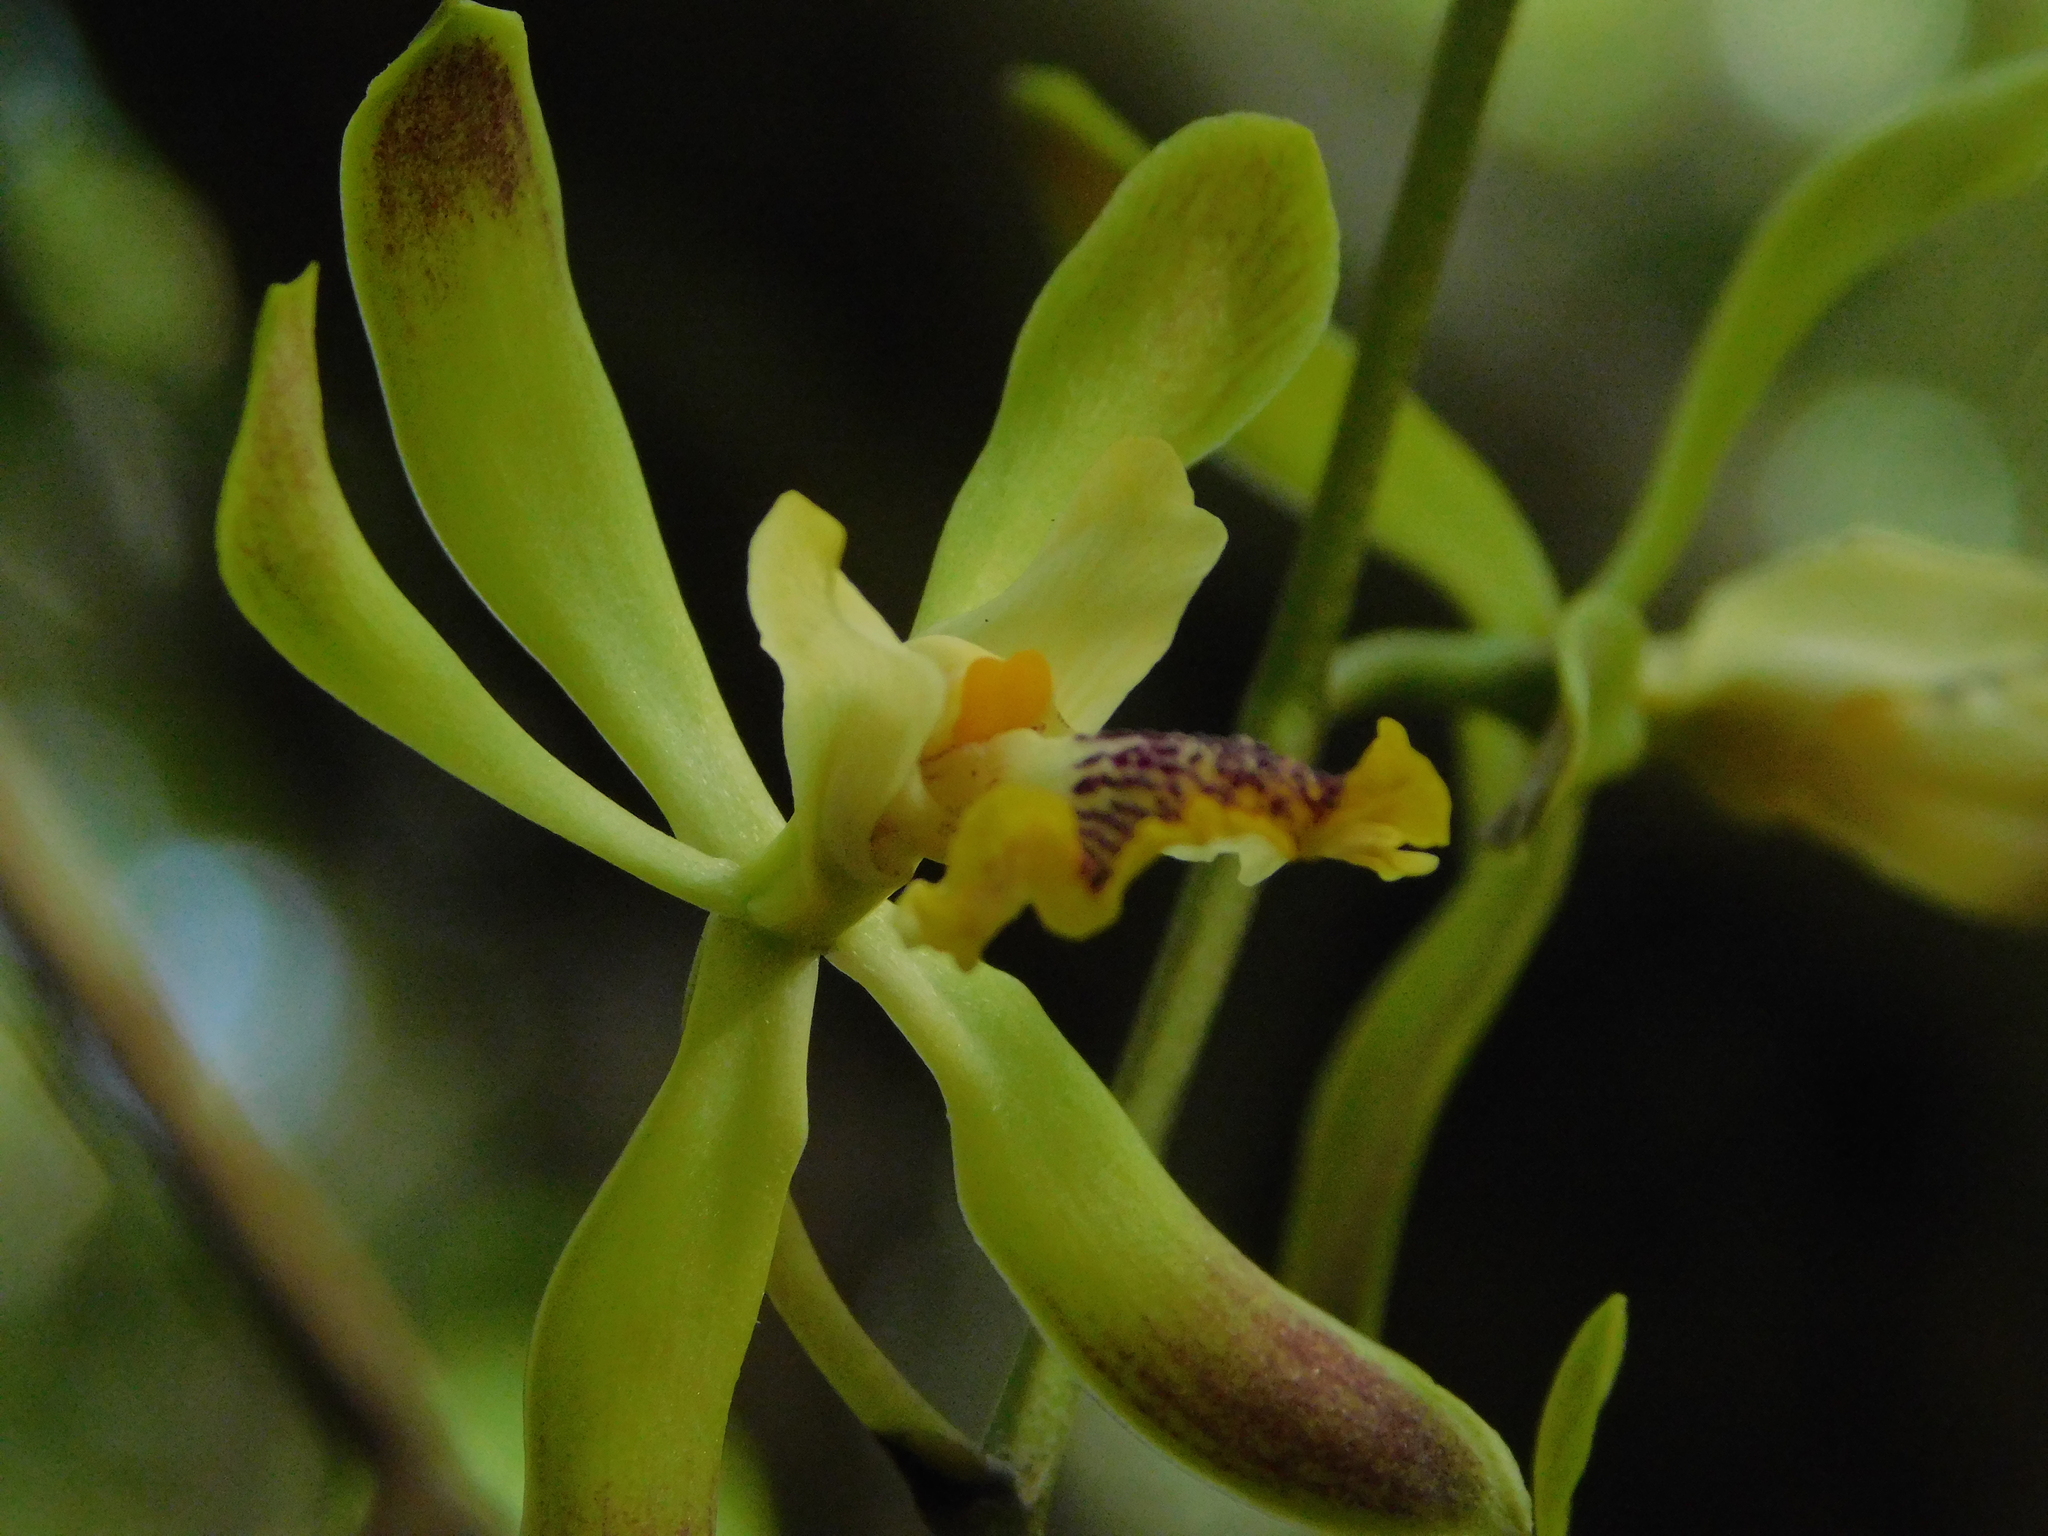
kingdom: Plantae
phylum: Tracheophyta
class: Liliopsida
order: Asparagales
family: Orchidaceae
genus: Encyclia
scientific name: Encyclia alata
